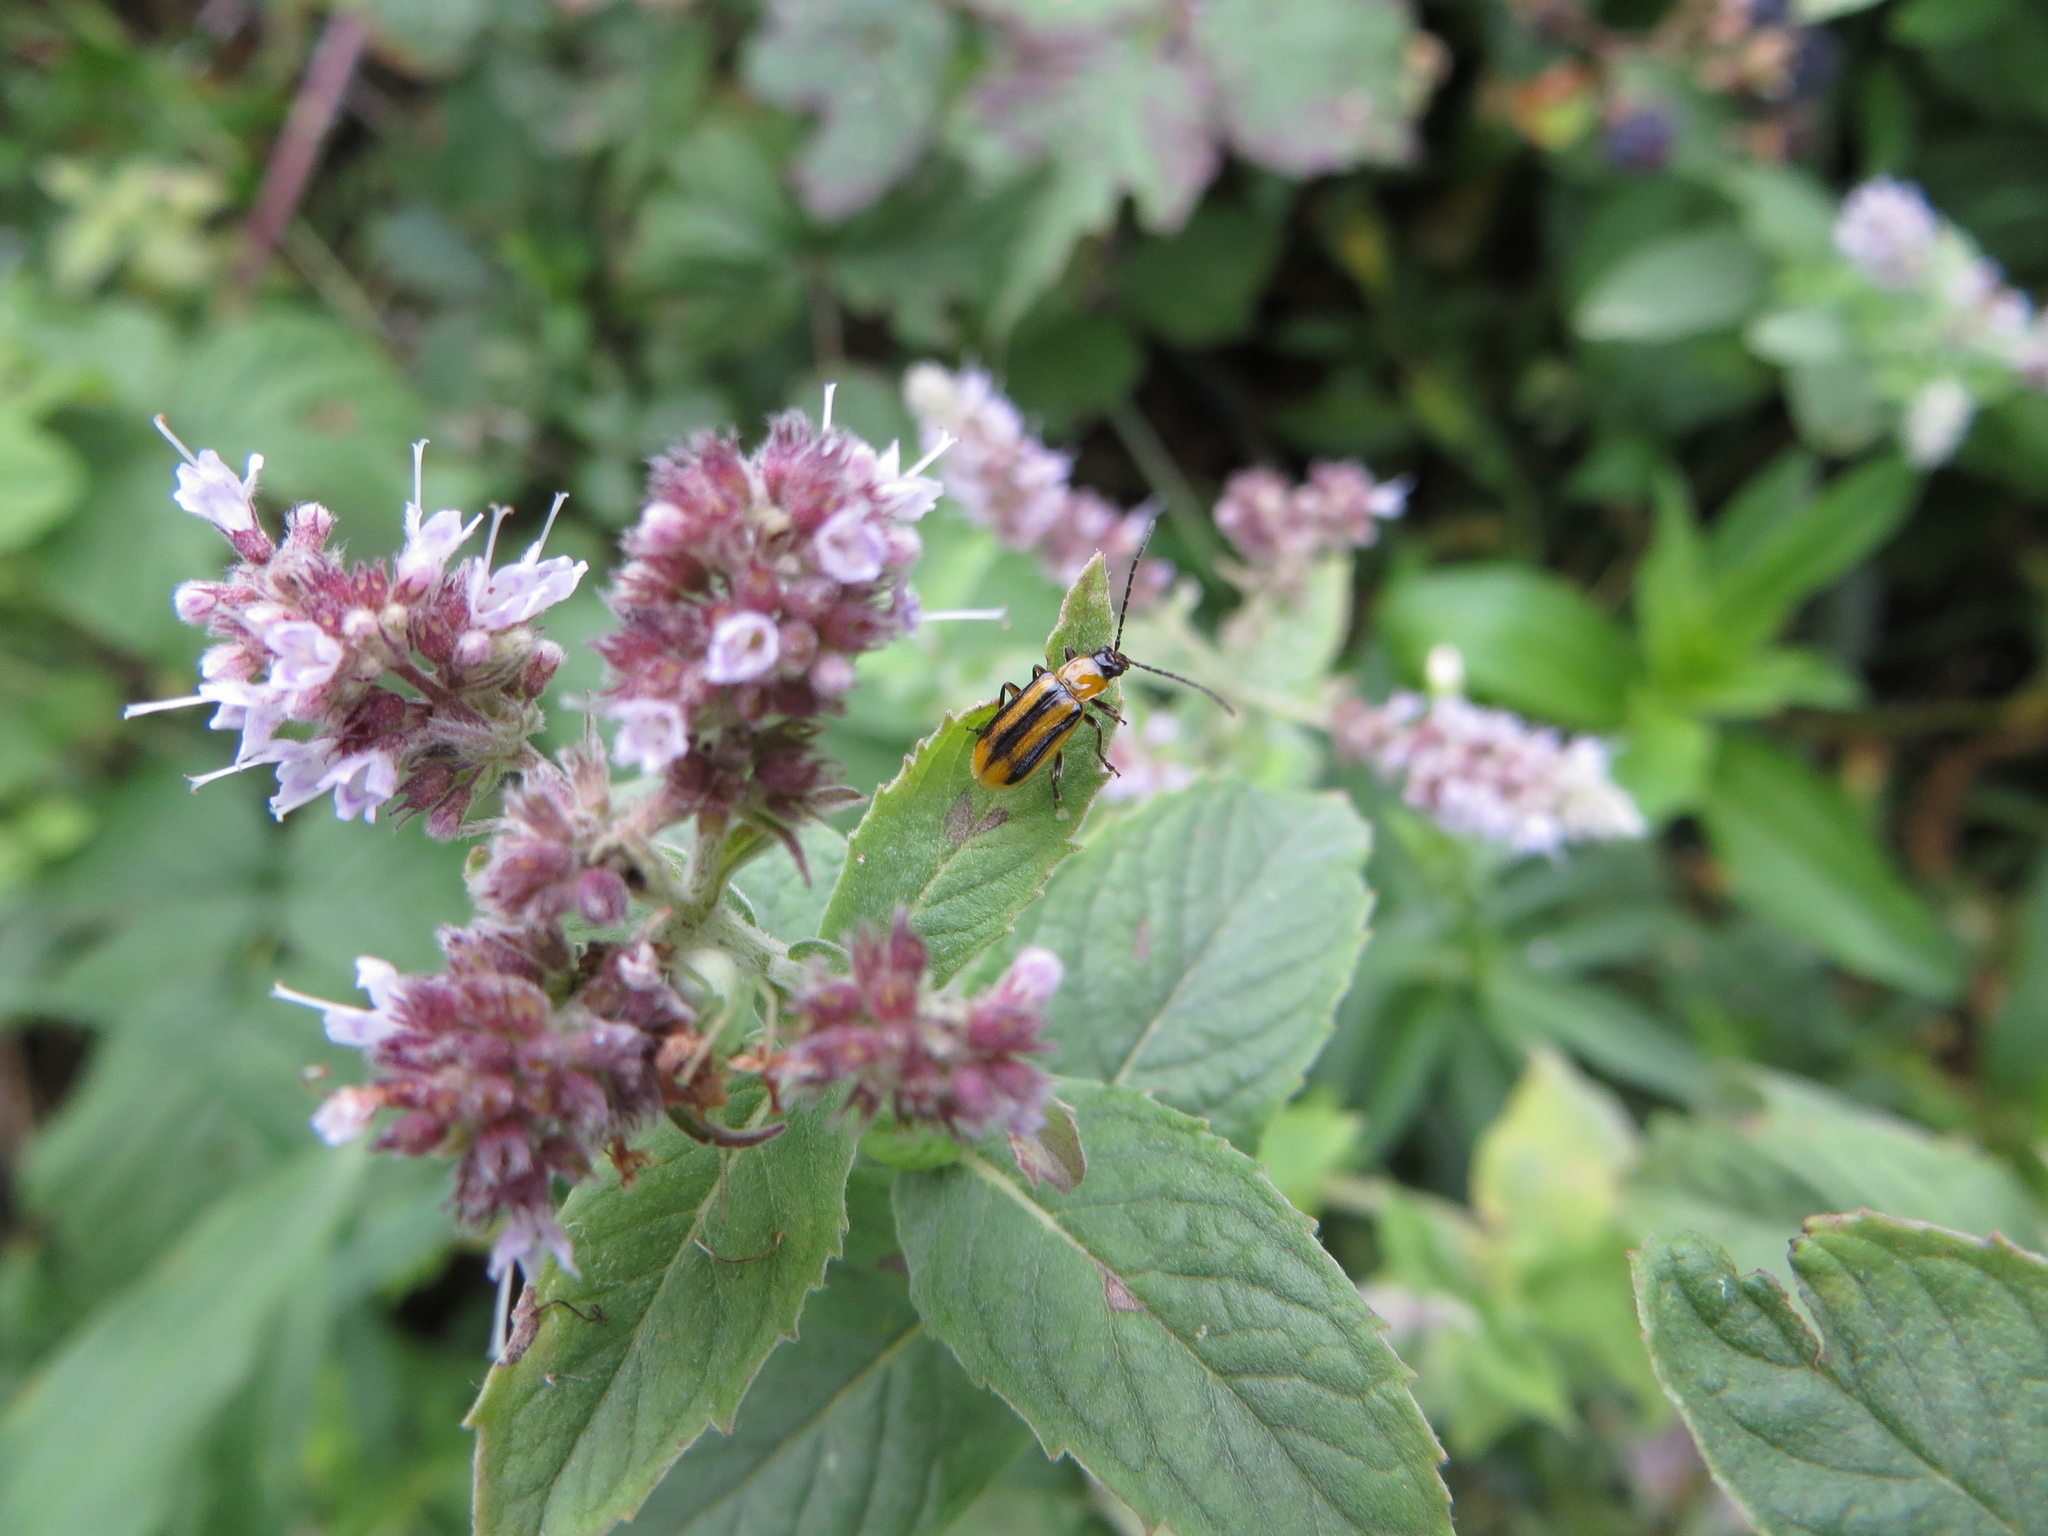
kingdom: Animalia
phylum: Arthropoda
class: Insecta
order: Coleoptera
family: Chrysomelidae
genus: Diabrotica
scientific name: Diabrotica virgifera
